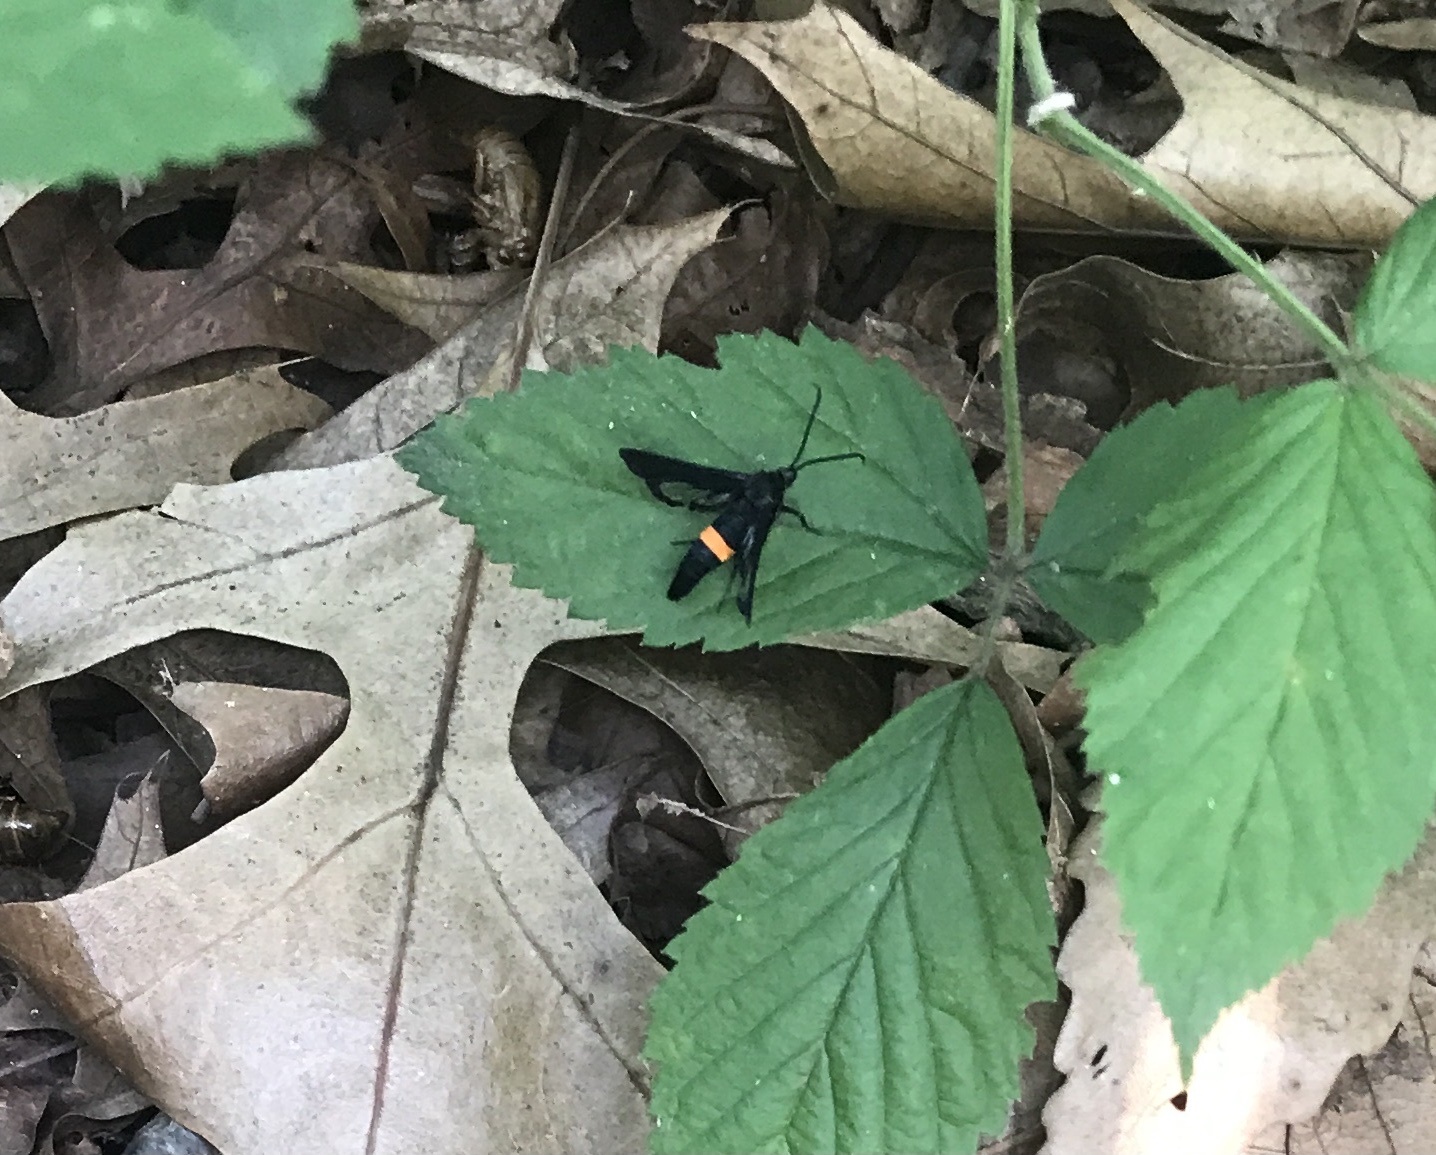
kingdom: Animalia
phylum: Arthropoda
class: Insecta
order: Lepidoptera
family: Sesiidae
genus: Synanthedon
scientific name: Synanthedon exitiosa
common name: Peachtree borer moth
